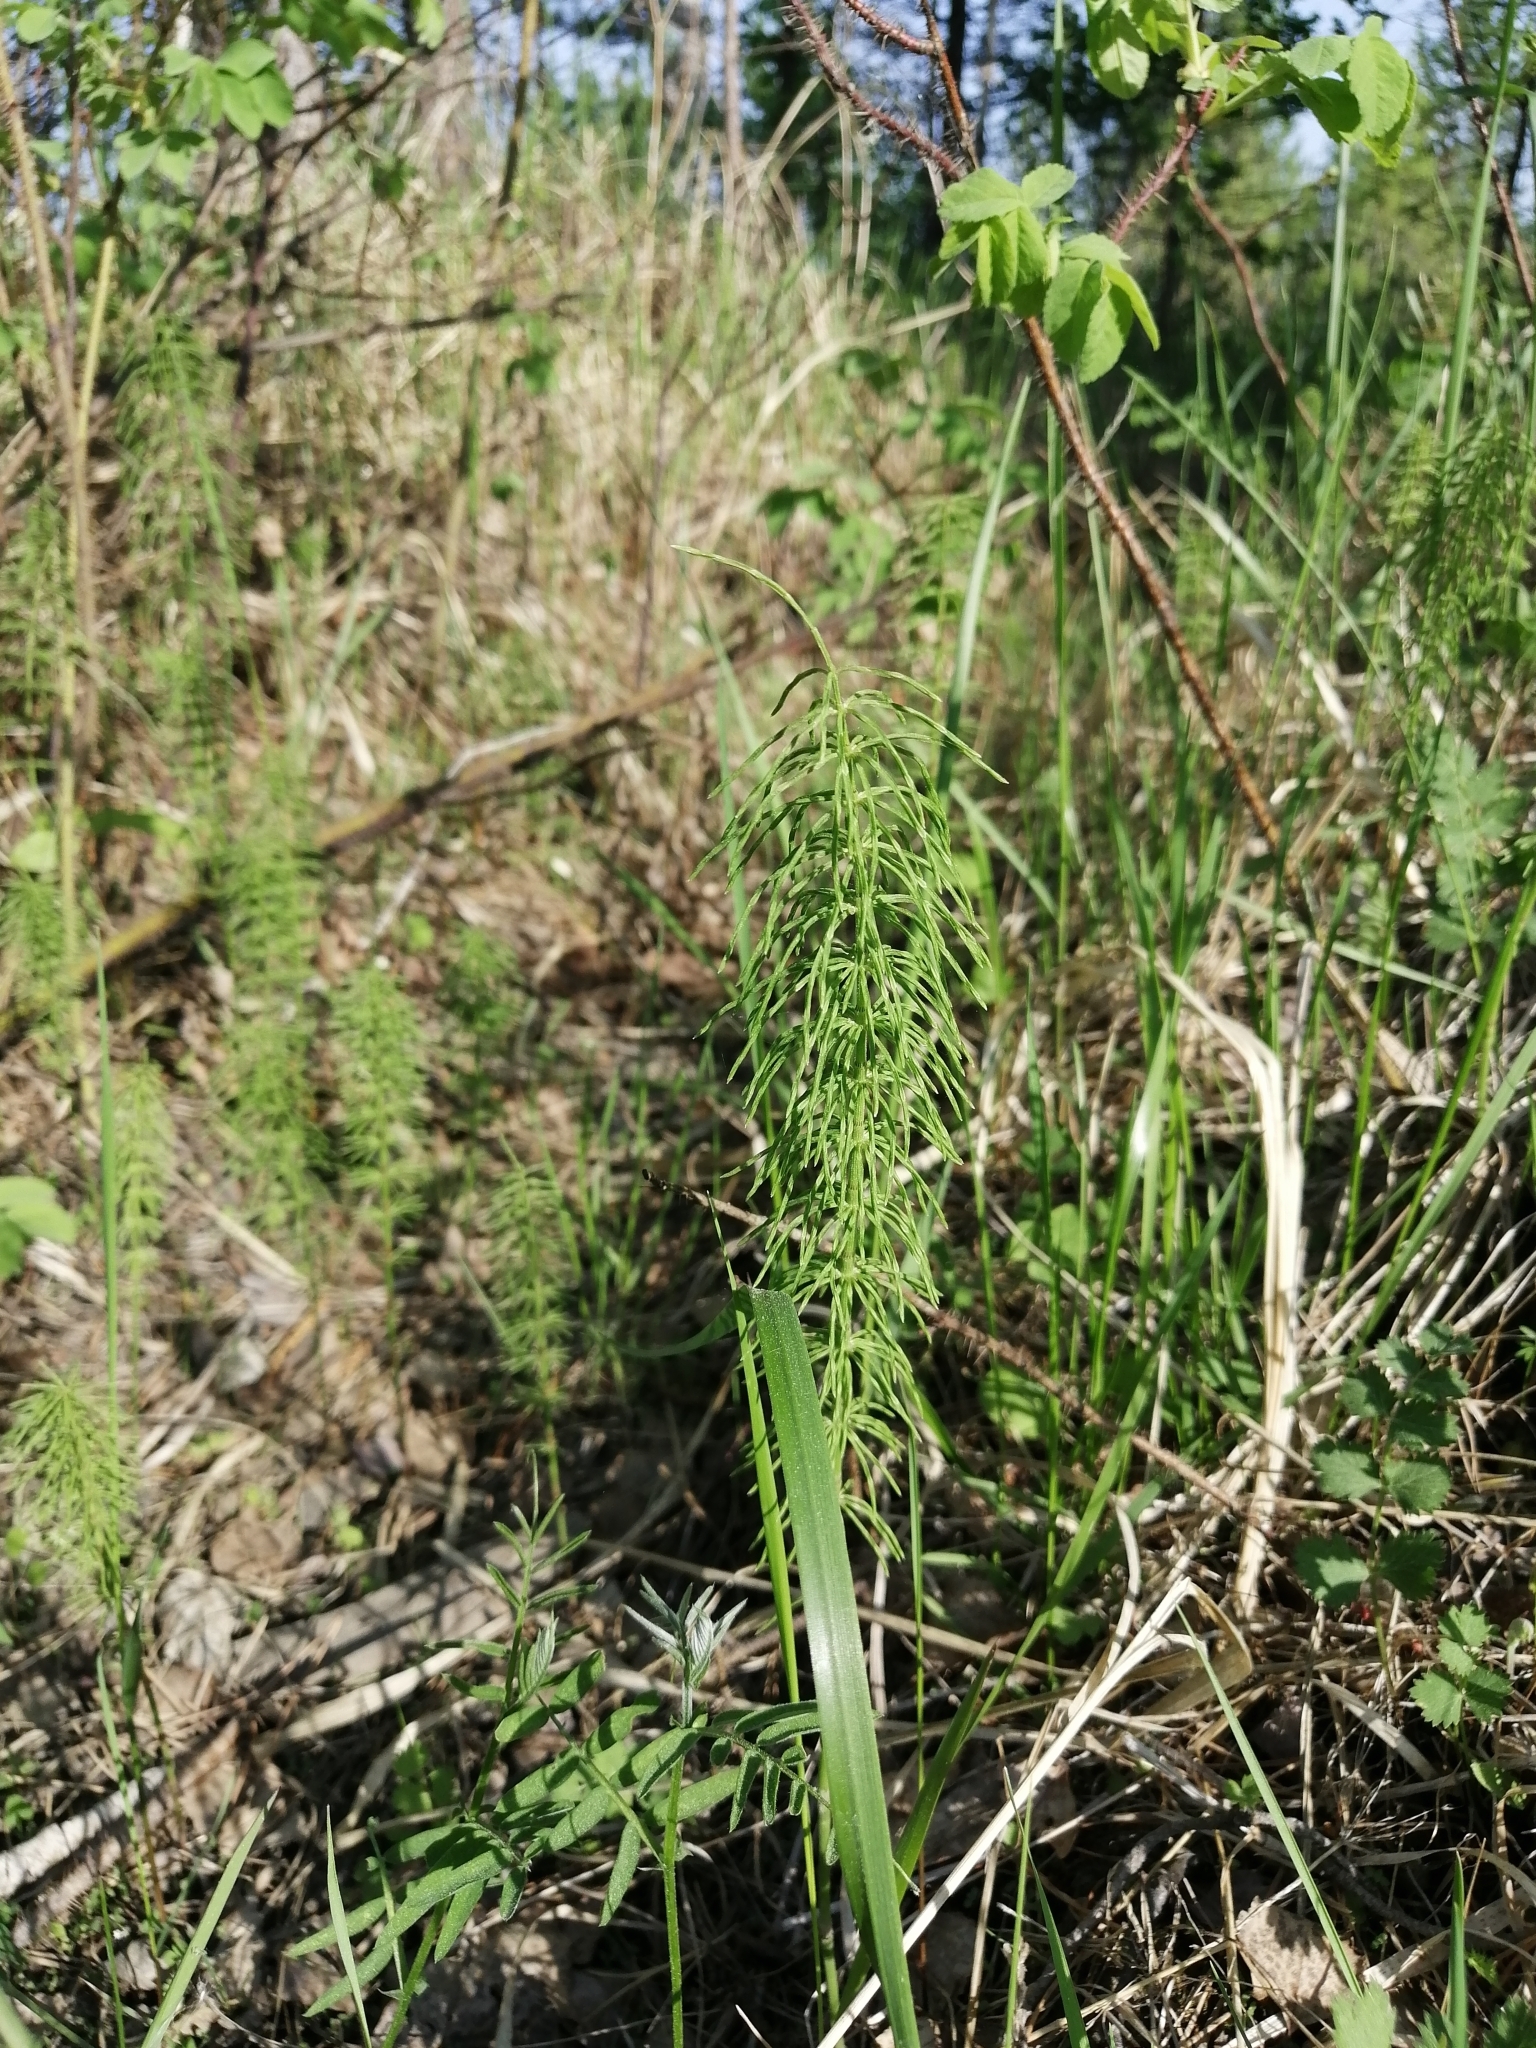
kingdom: Plantae
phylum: Tracheophyta
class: Polypodiopsida
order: Equisetales
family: Equisetaceae
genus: Equisetum
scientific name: Equisetum pratense
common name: Meadow horsetail
